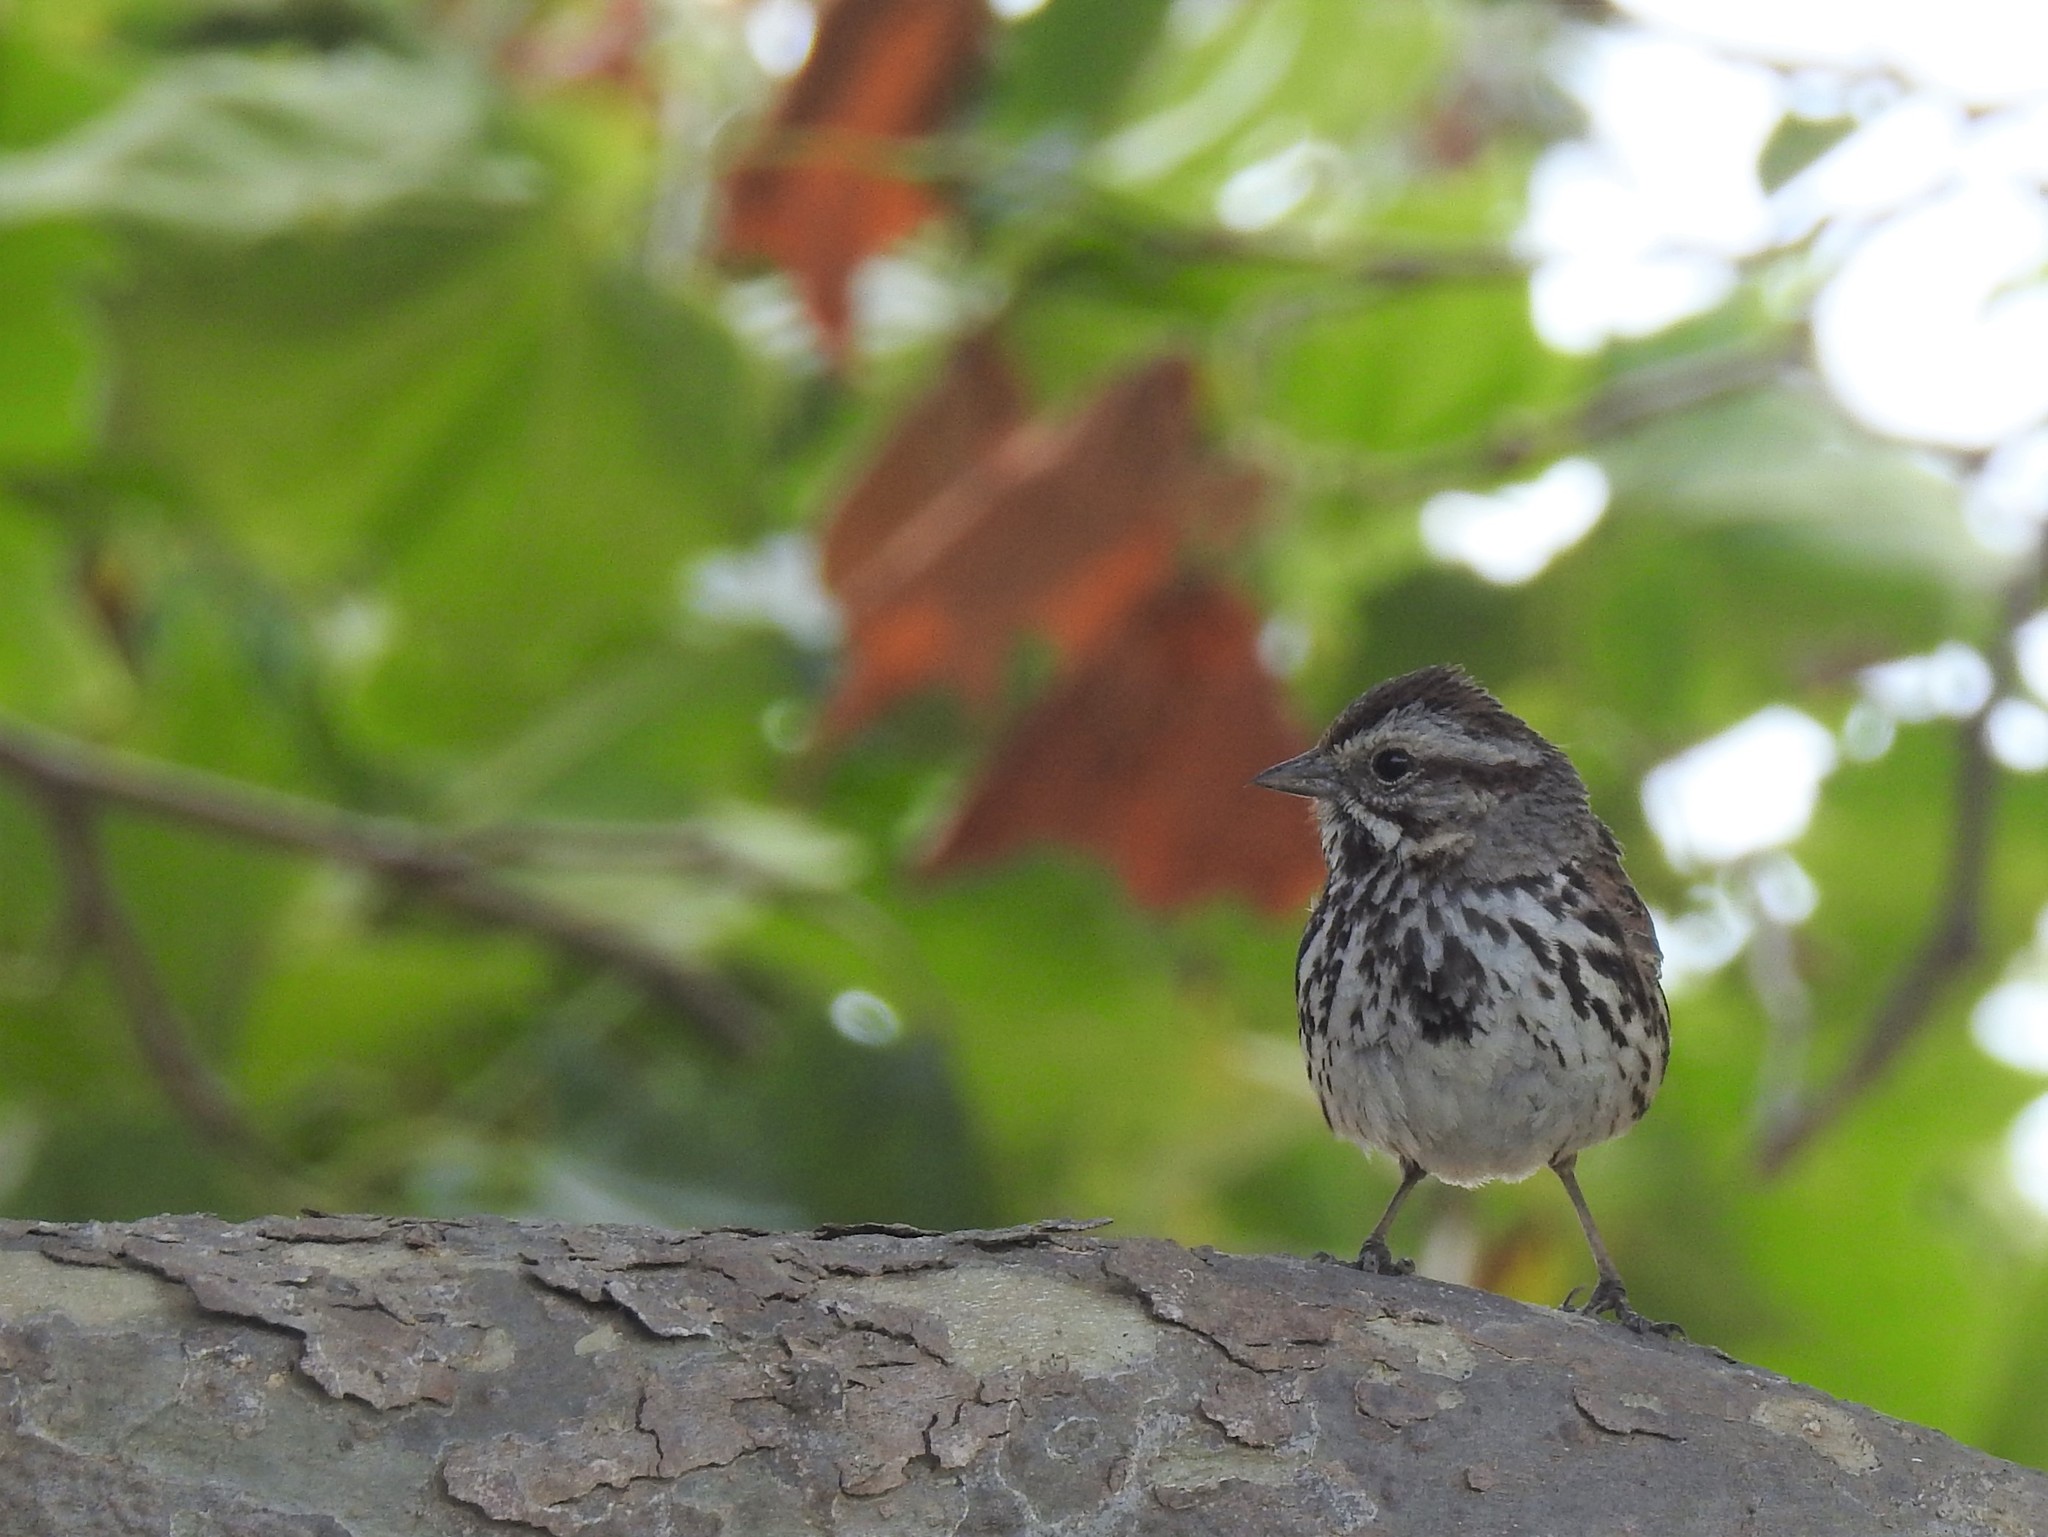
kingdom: Animalia
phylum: Chordata
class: Aves
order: Passeriformes
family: Passerellidae
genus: Melospiza
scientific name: Melospiza melodia
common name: Song sparrow
